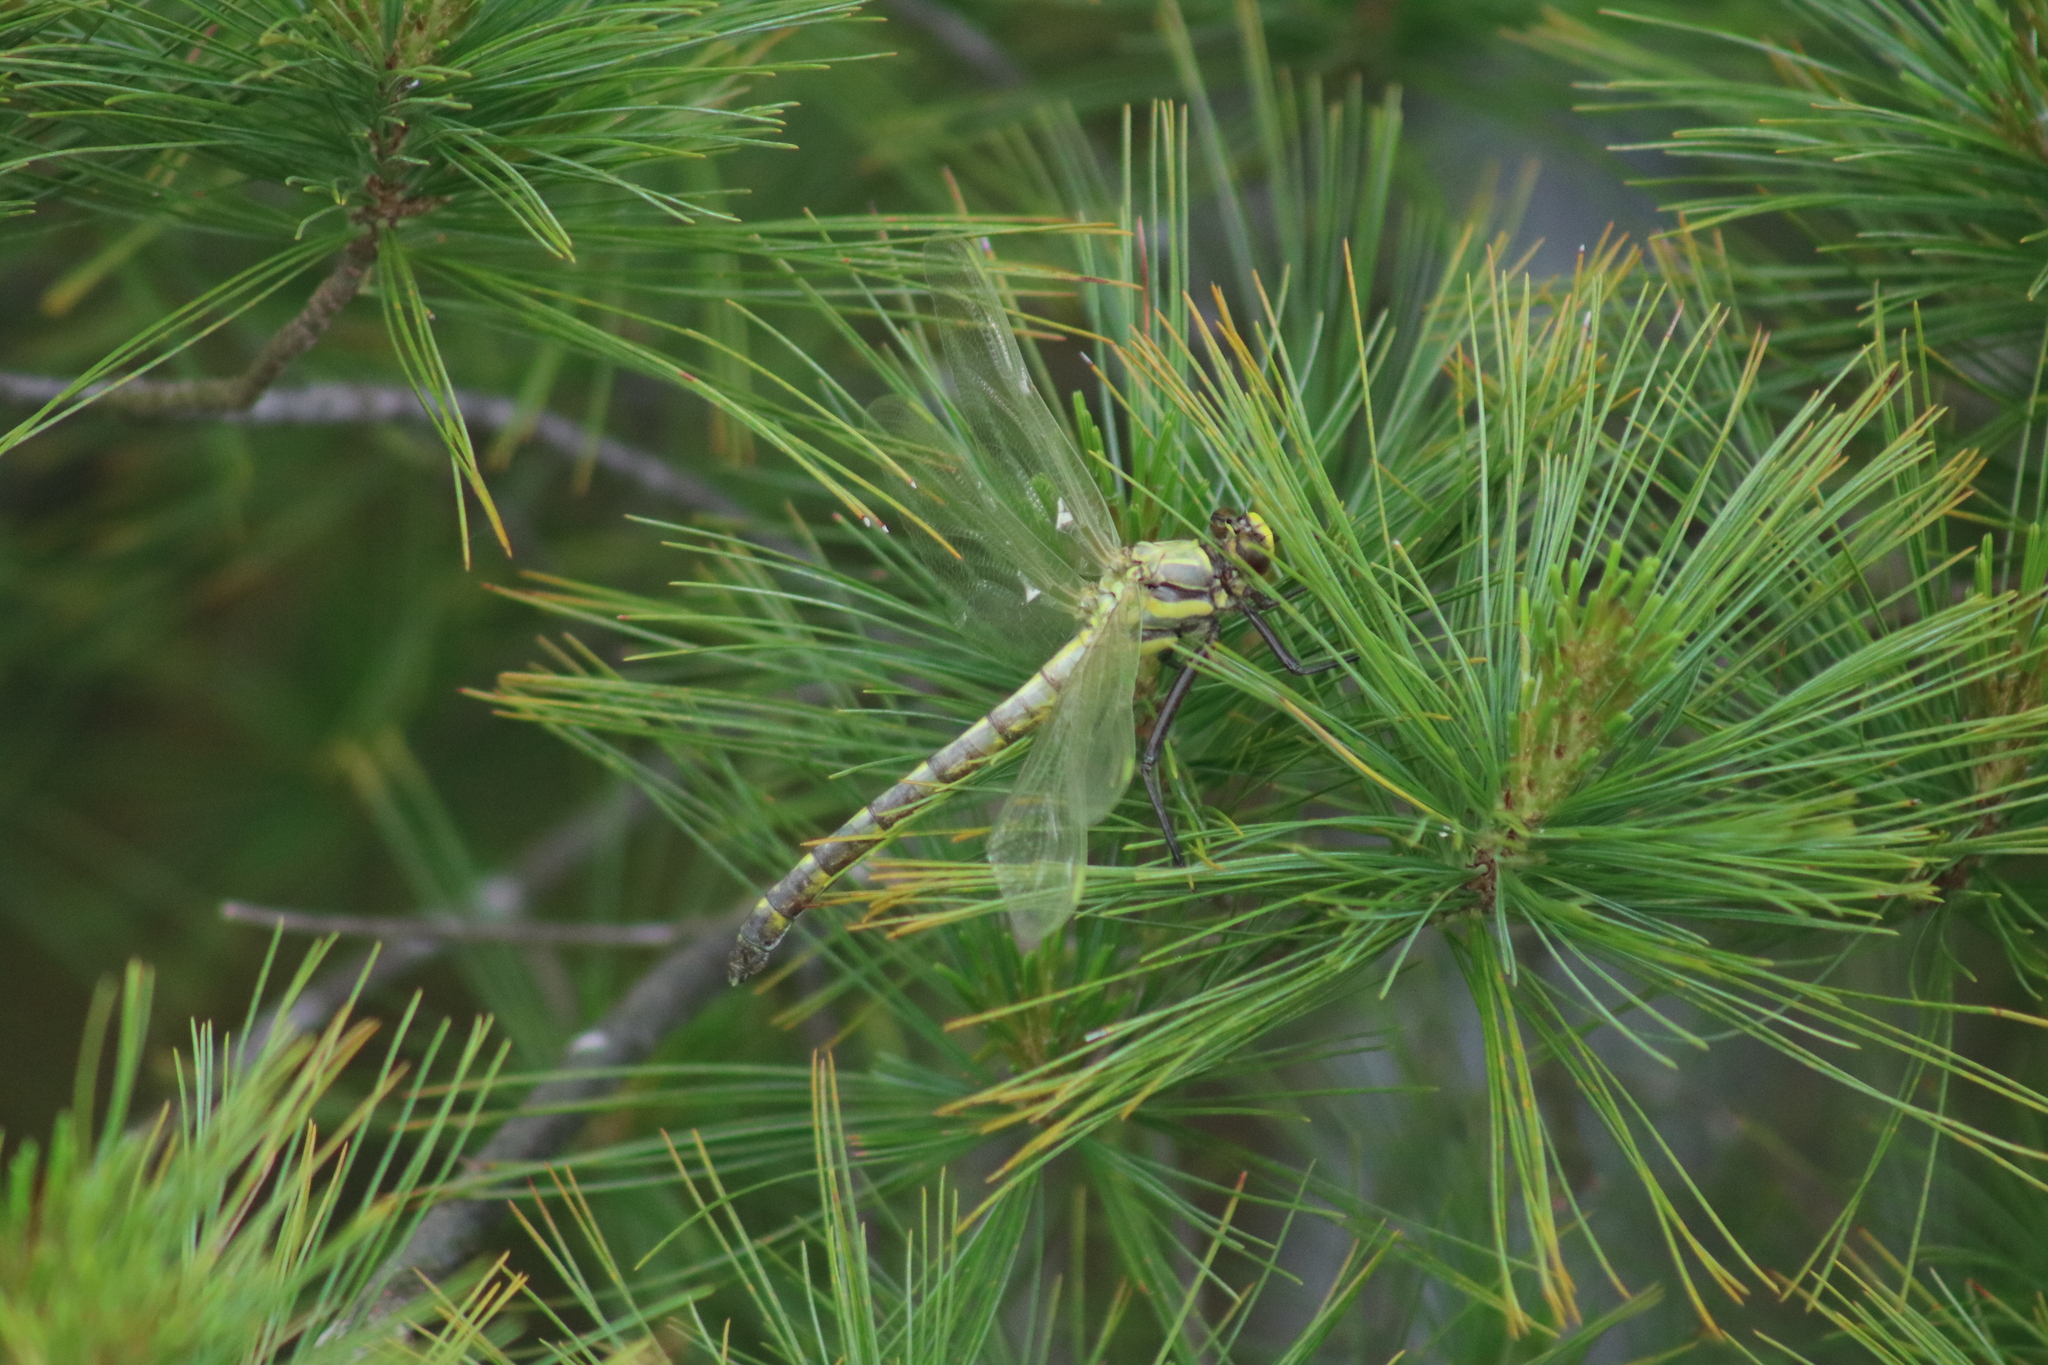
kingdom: Animalia
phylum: Arthropoda
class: Insecta
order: Odonata
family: Gomphidae
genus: Hagenius
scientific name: Hagenius brevistylus
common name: Dragonhunter
